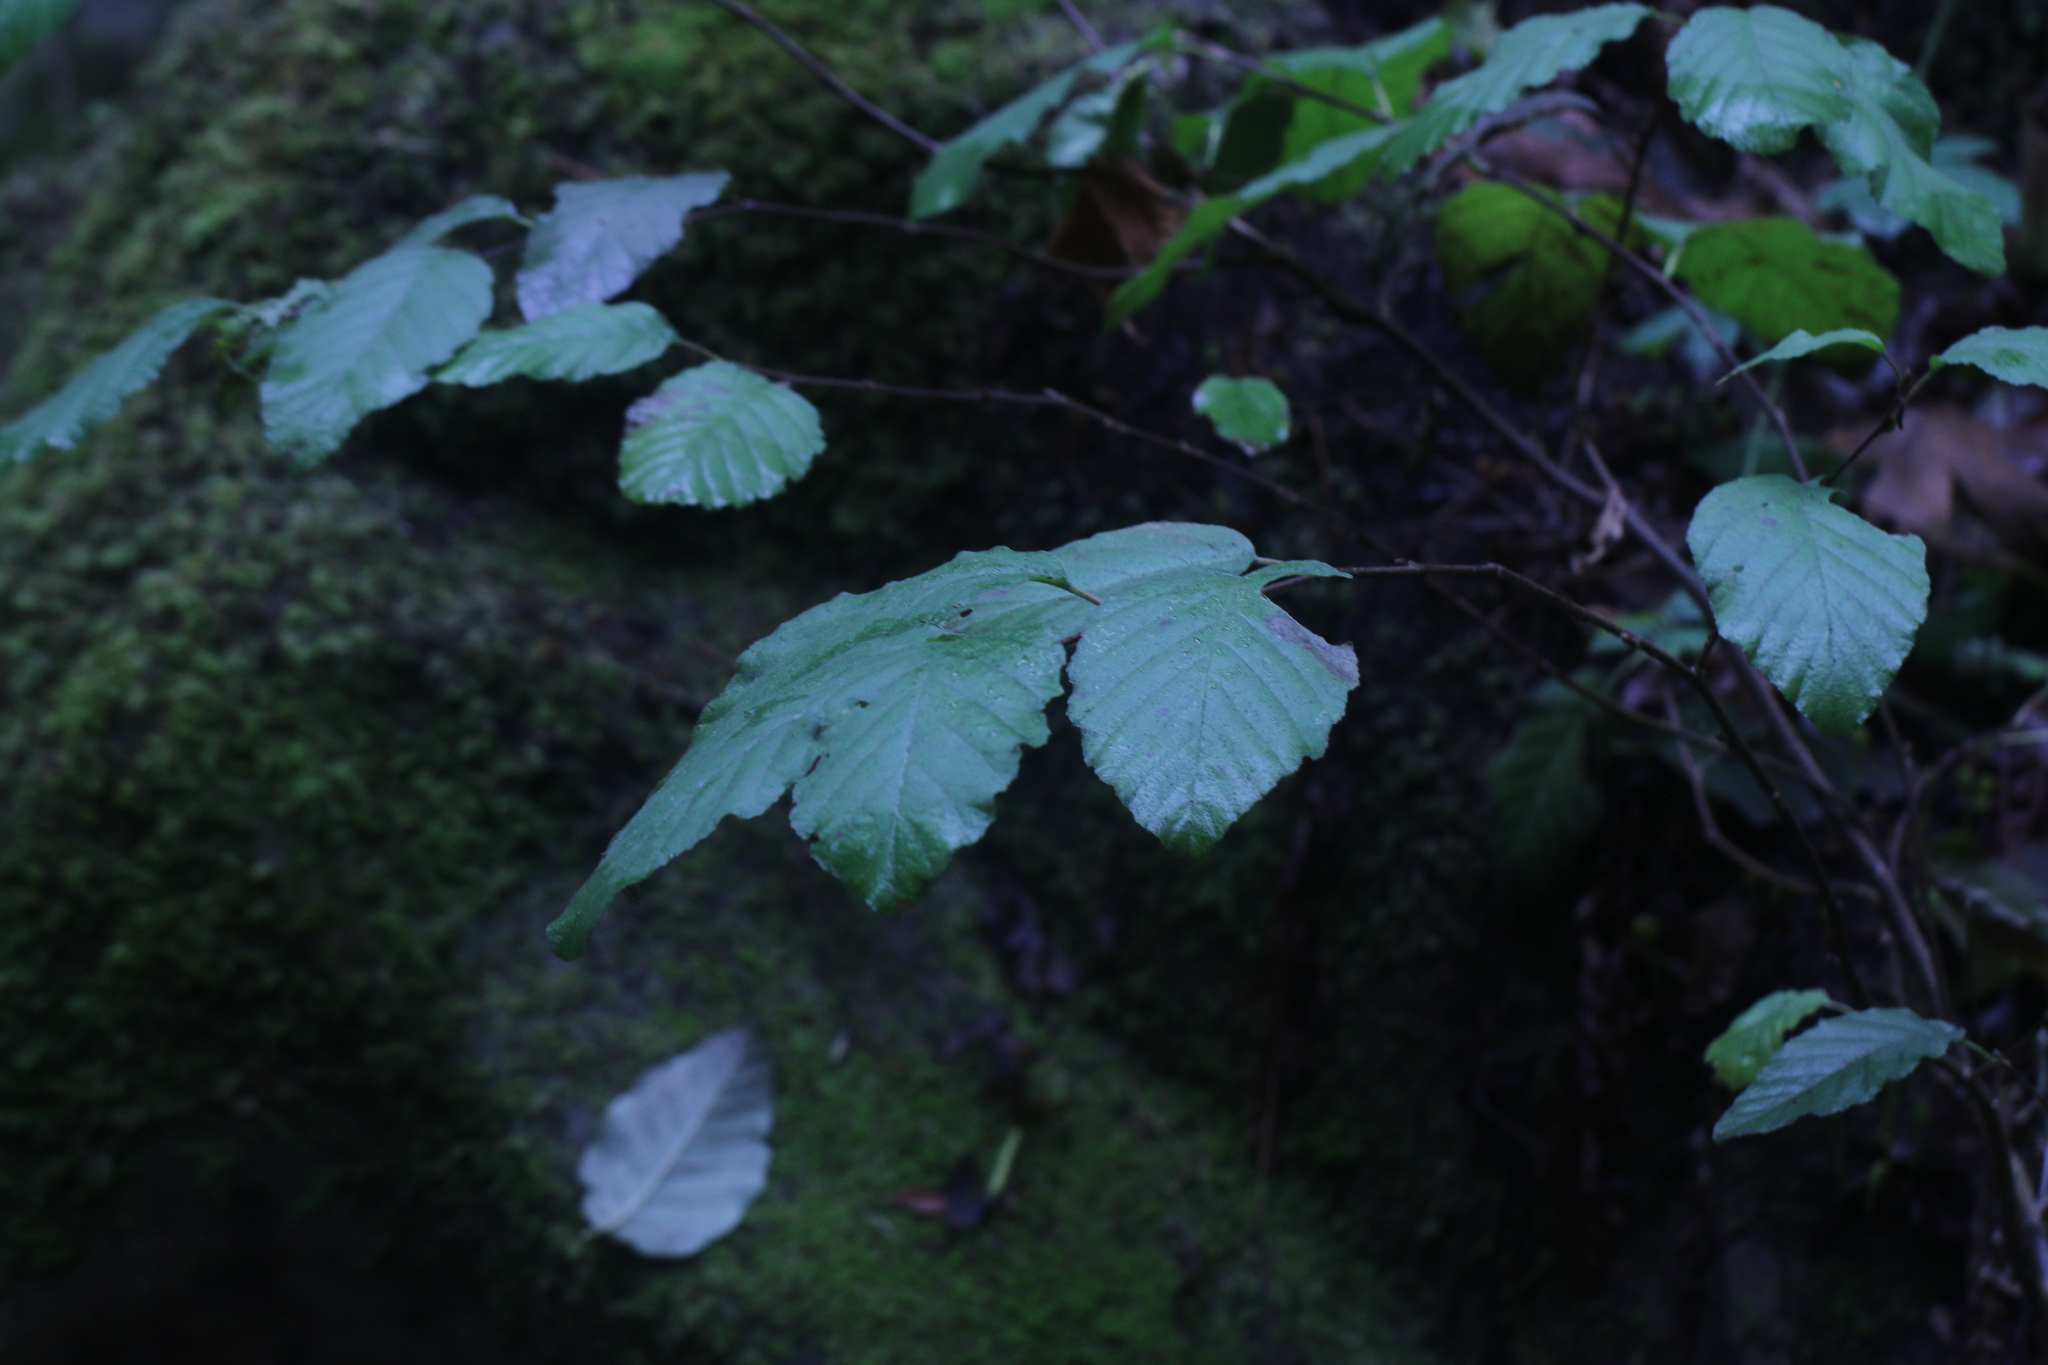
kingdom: Plantae
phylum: Tracheophyta
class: Magnoliopsida
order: Fagales
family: Betulaceae
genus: Corylus
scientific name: Corylus cornuta
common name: Beaked hazel
